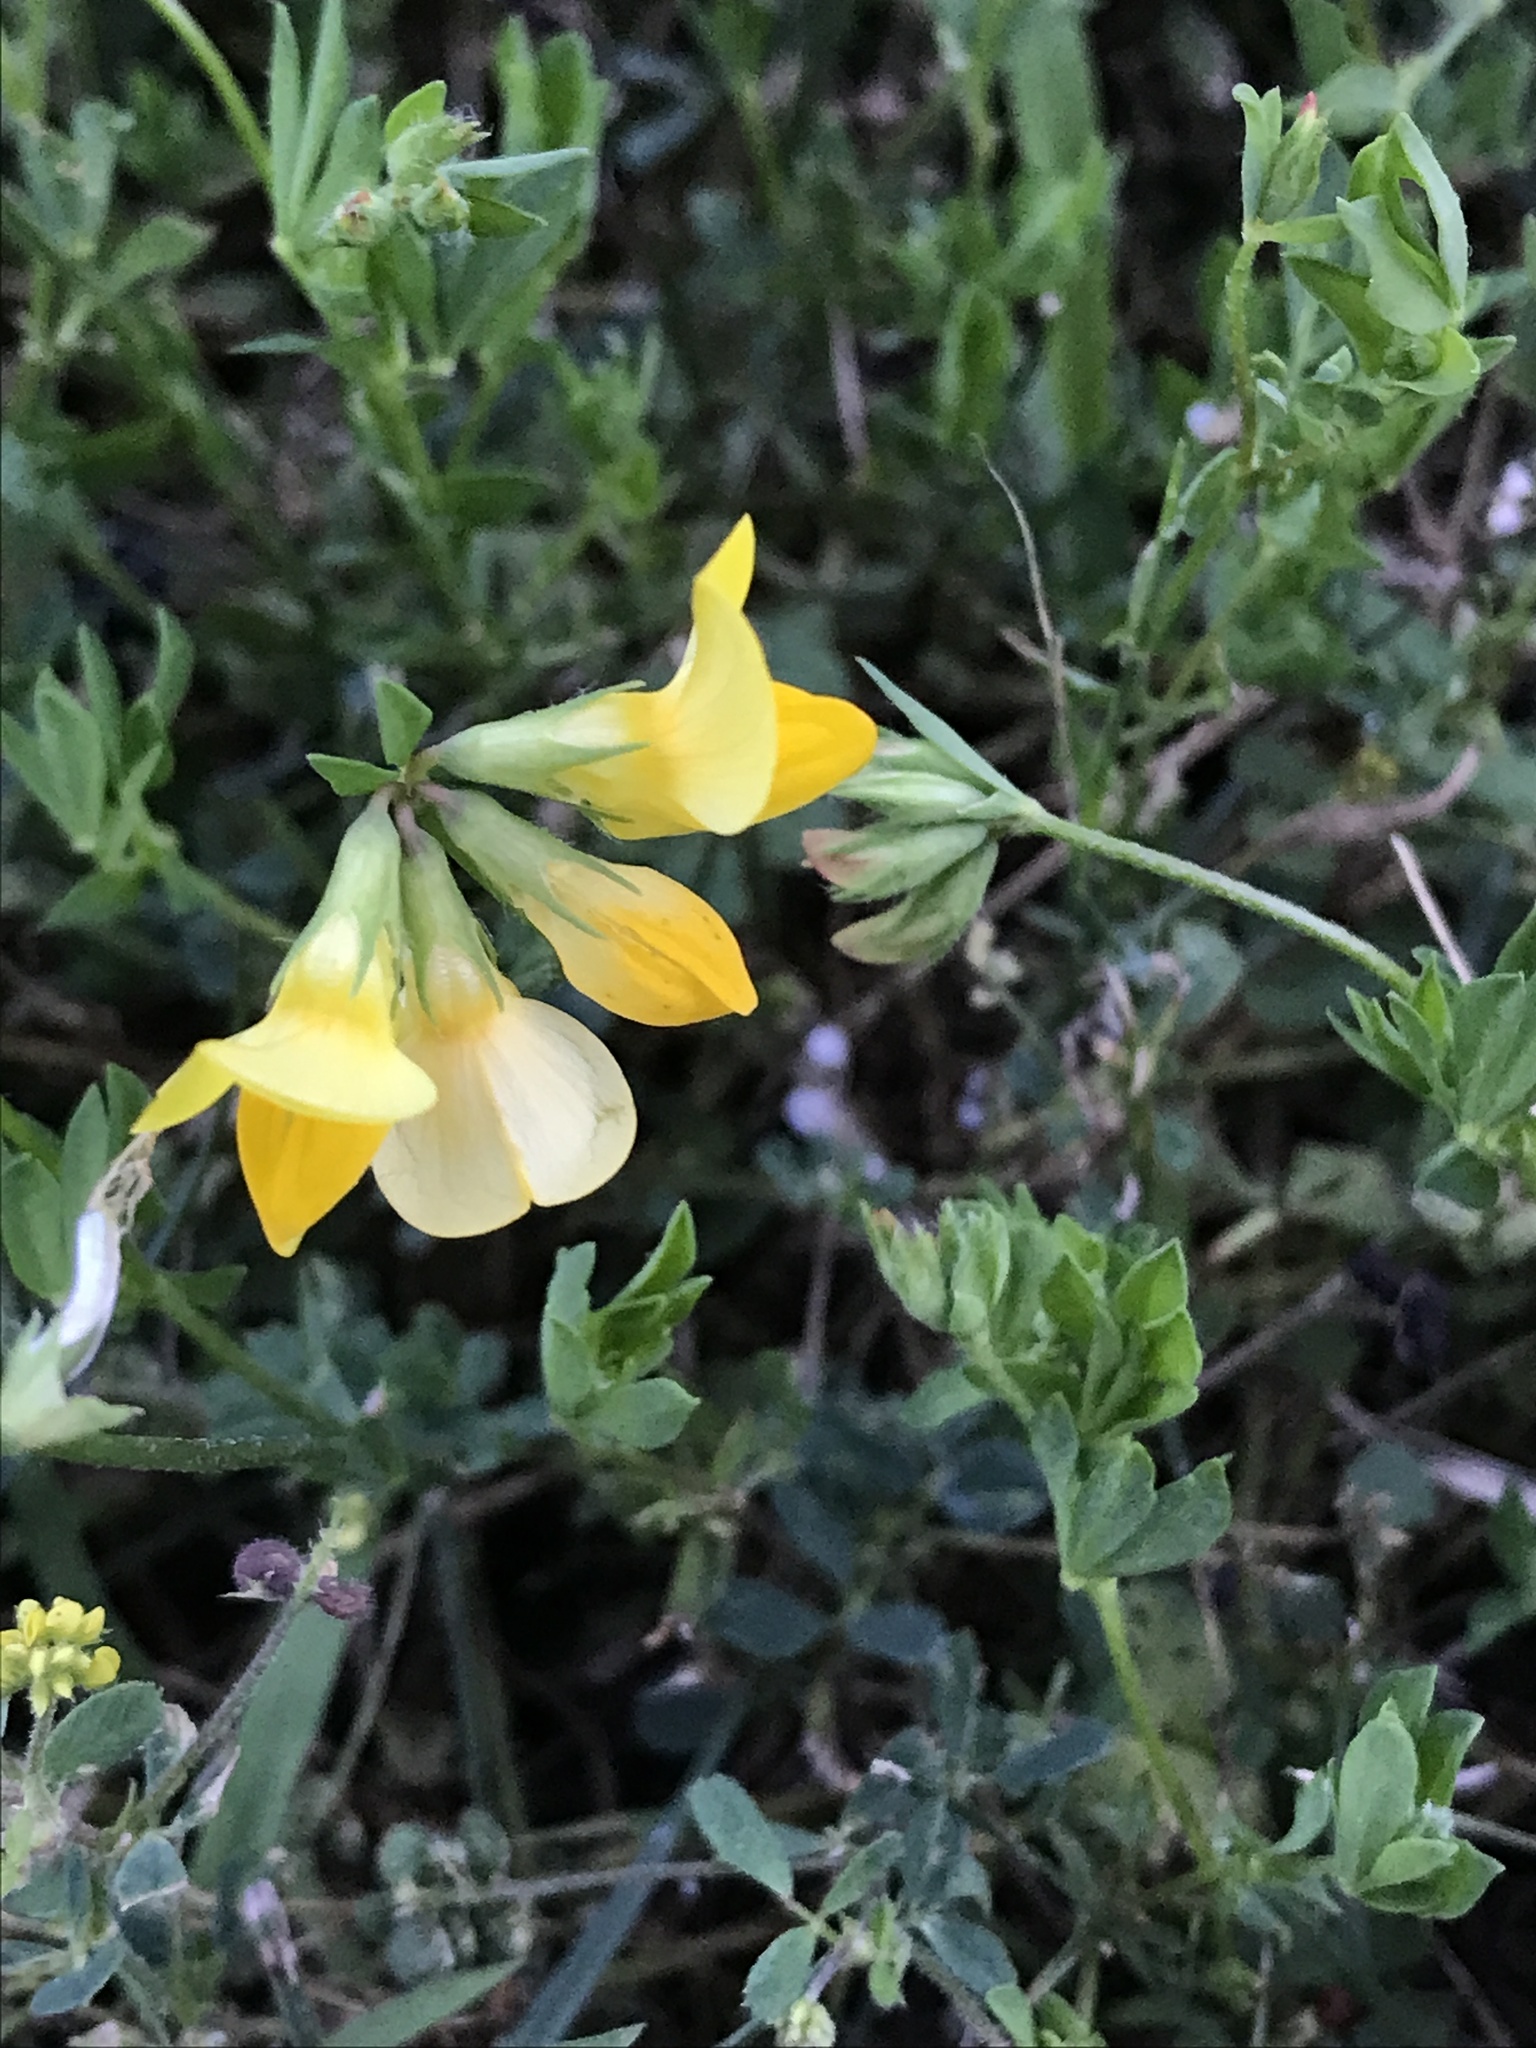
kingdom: Plantae
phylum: Tracheophyta
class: Magnoliopsida
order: Fabales
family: Fabaceae
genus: Lotus
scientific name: Lotus corniculatus
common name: Common bird's-foot-trefoil
